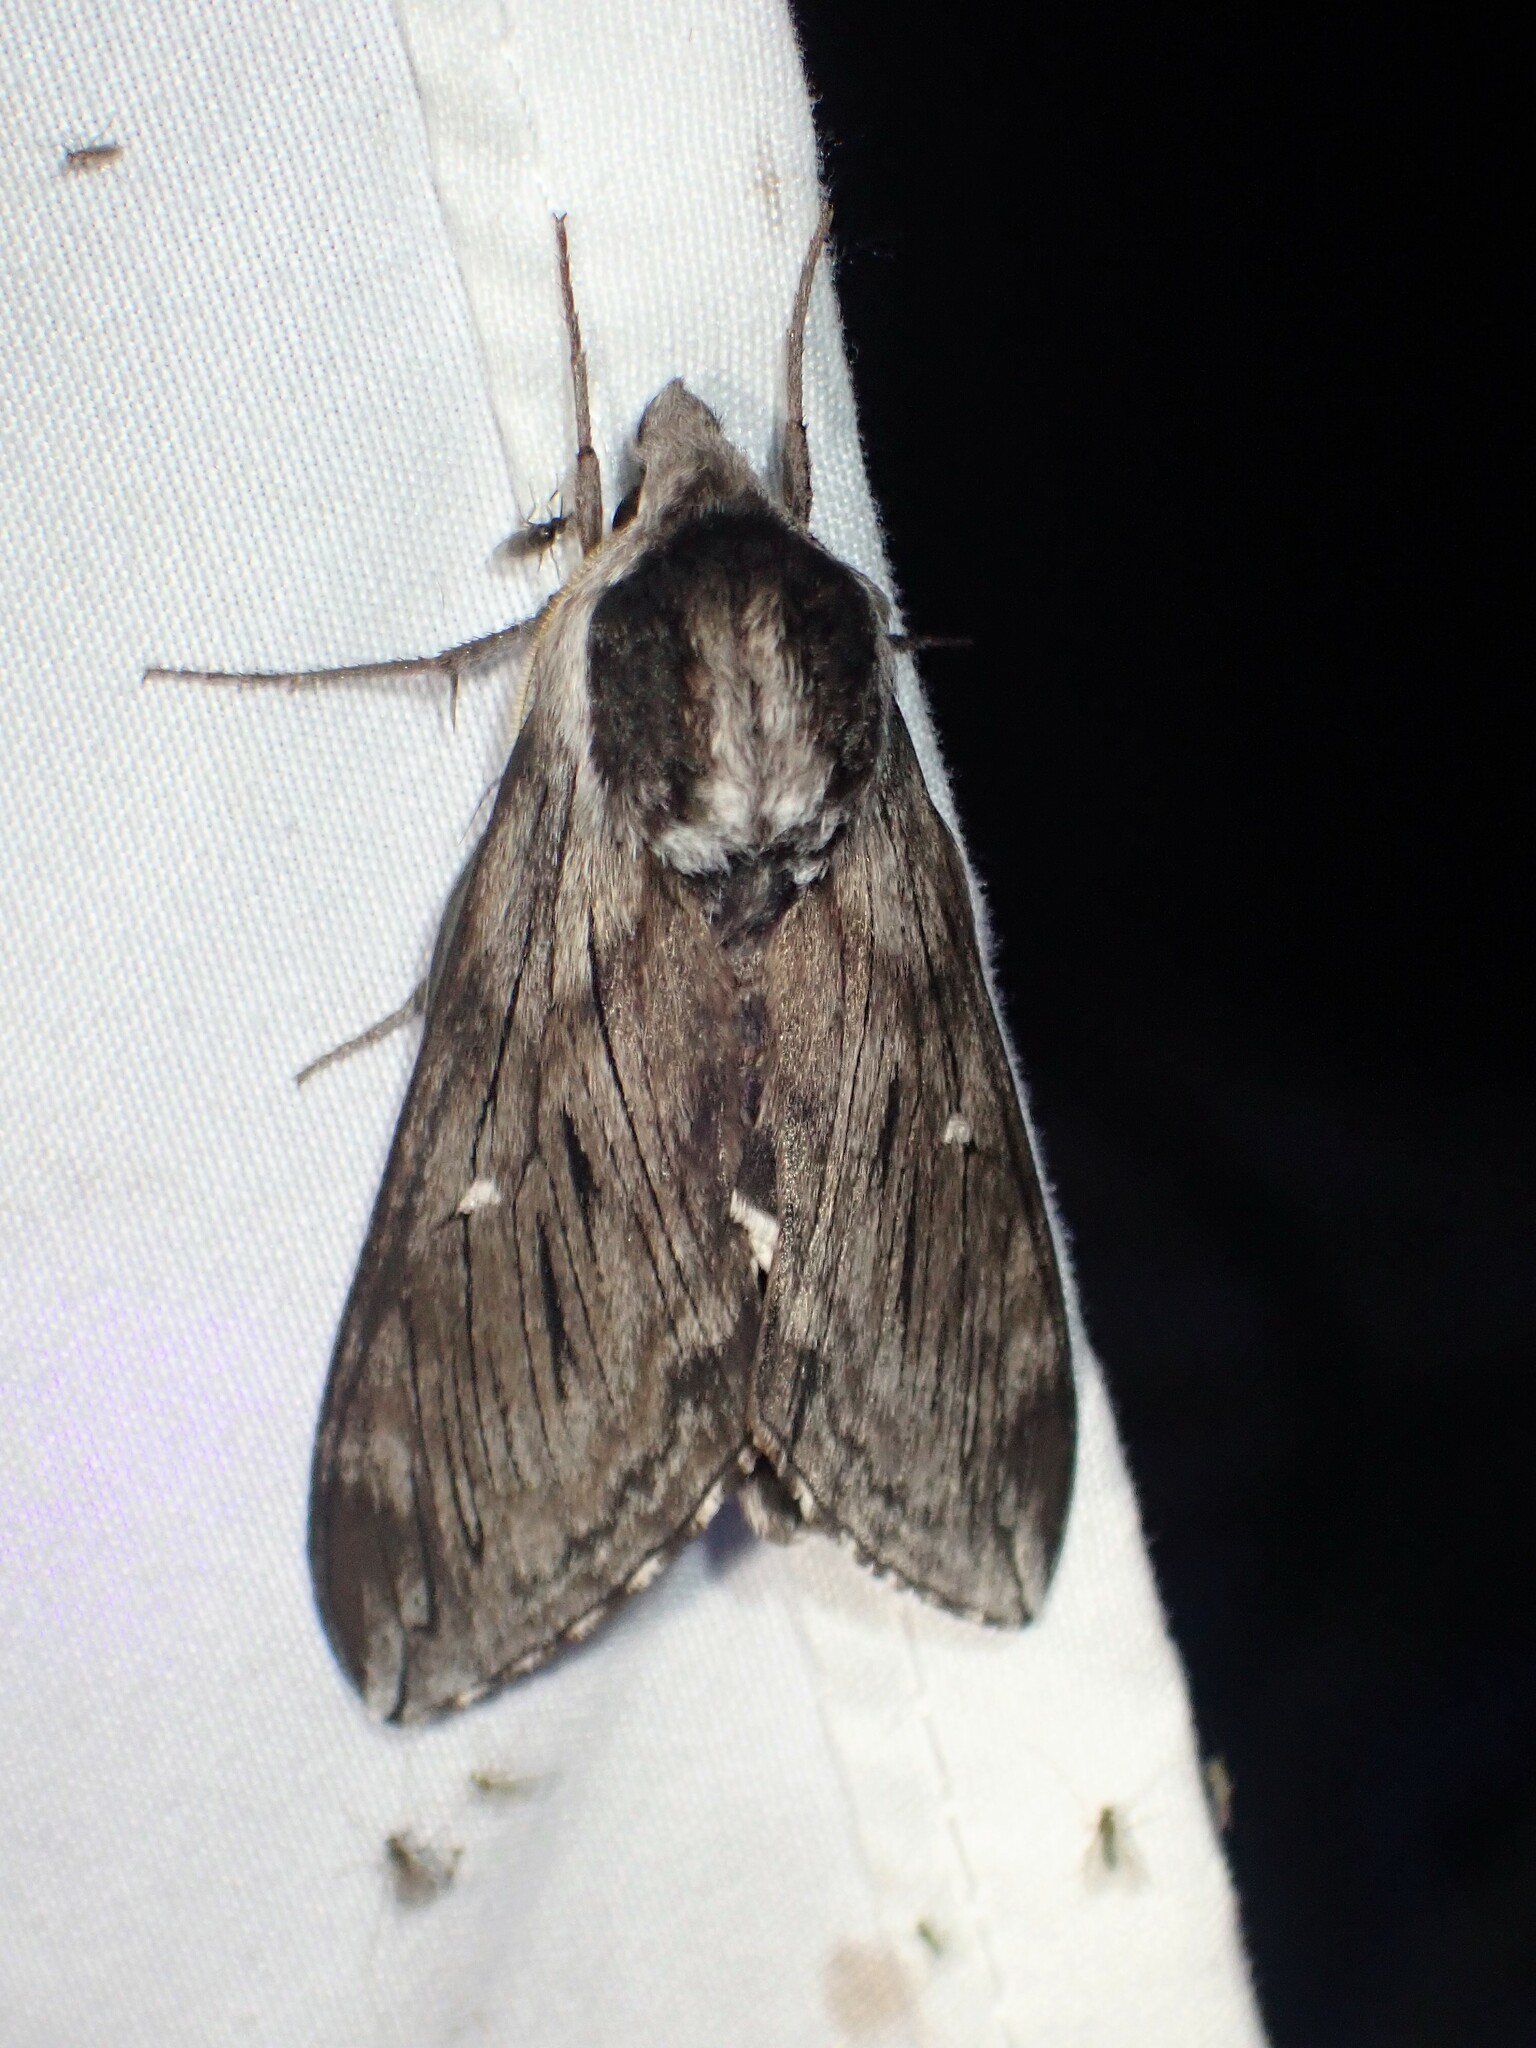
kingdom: Animalia
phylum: Arthropoda
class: Insecta
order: Lepidoptera
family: Sphingidae
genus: Sphinx
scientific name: Sphinx poecila
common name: Northern apple sphinx
